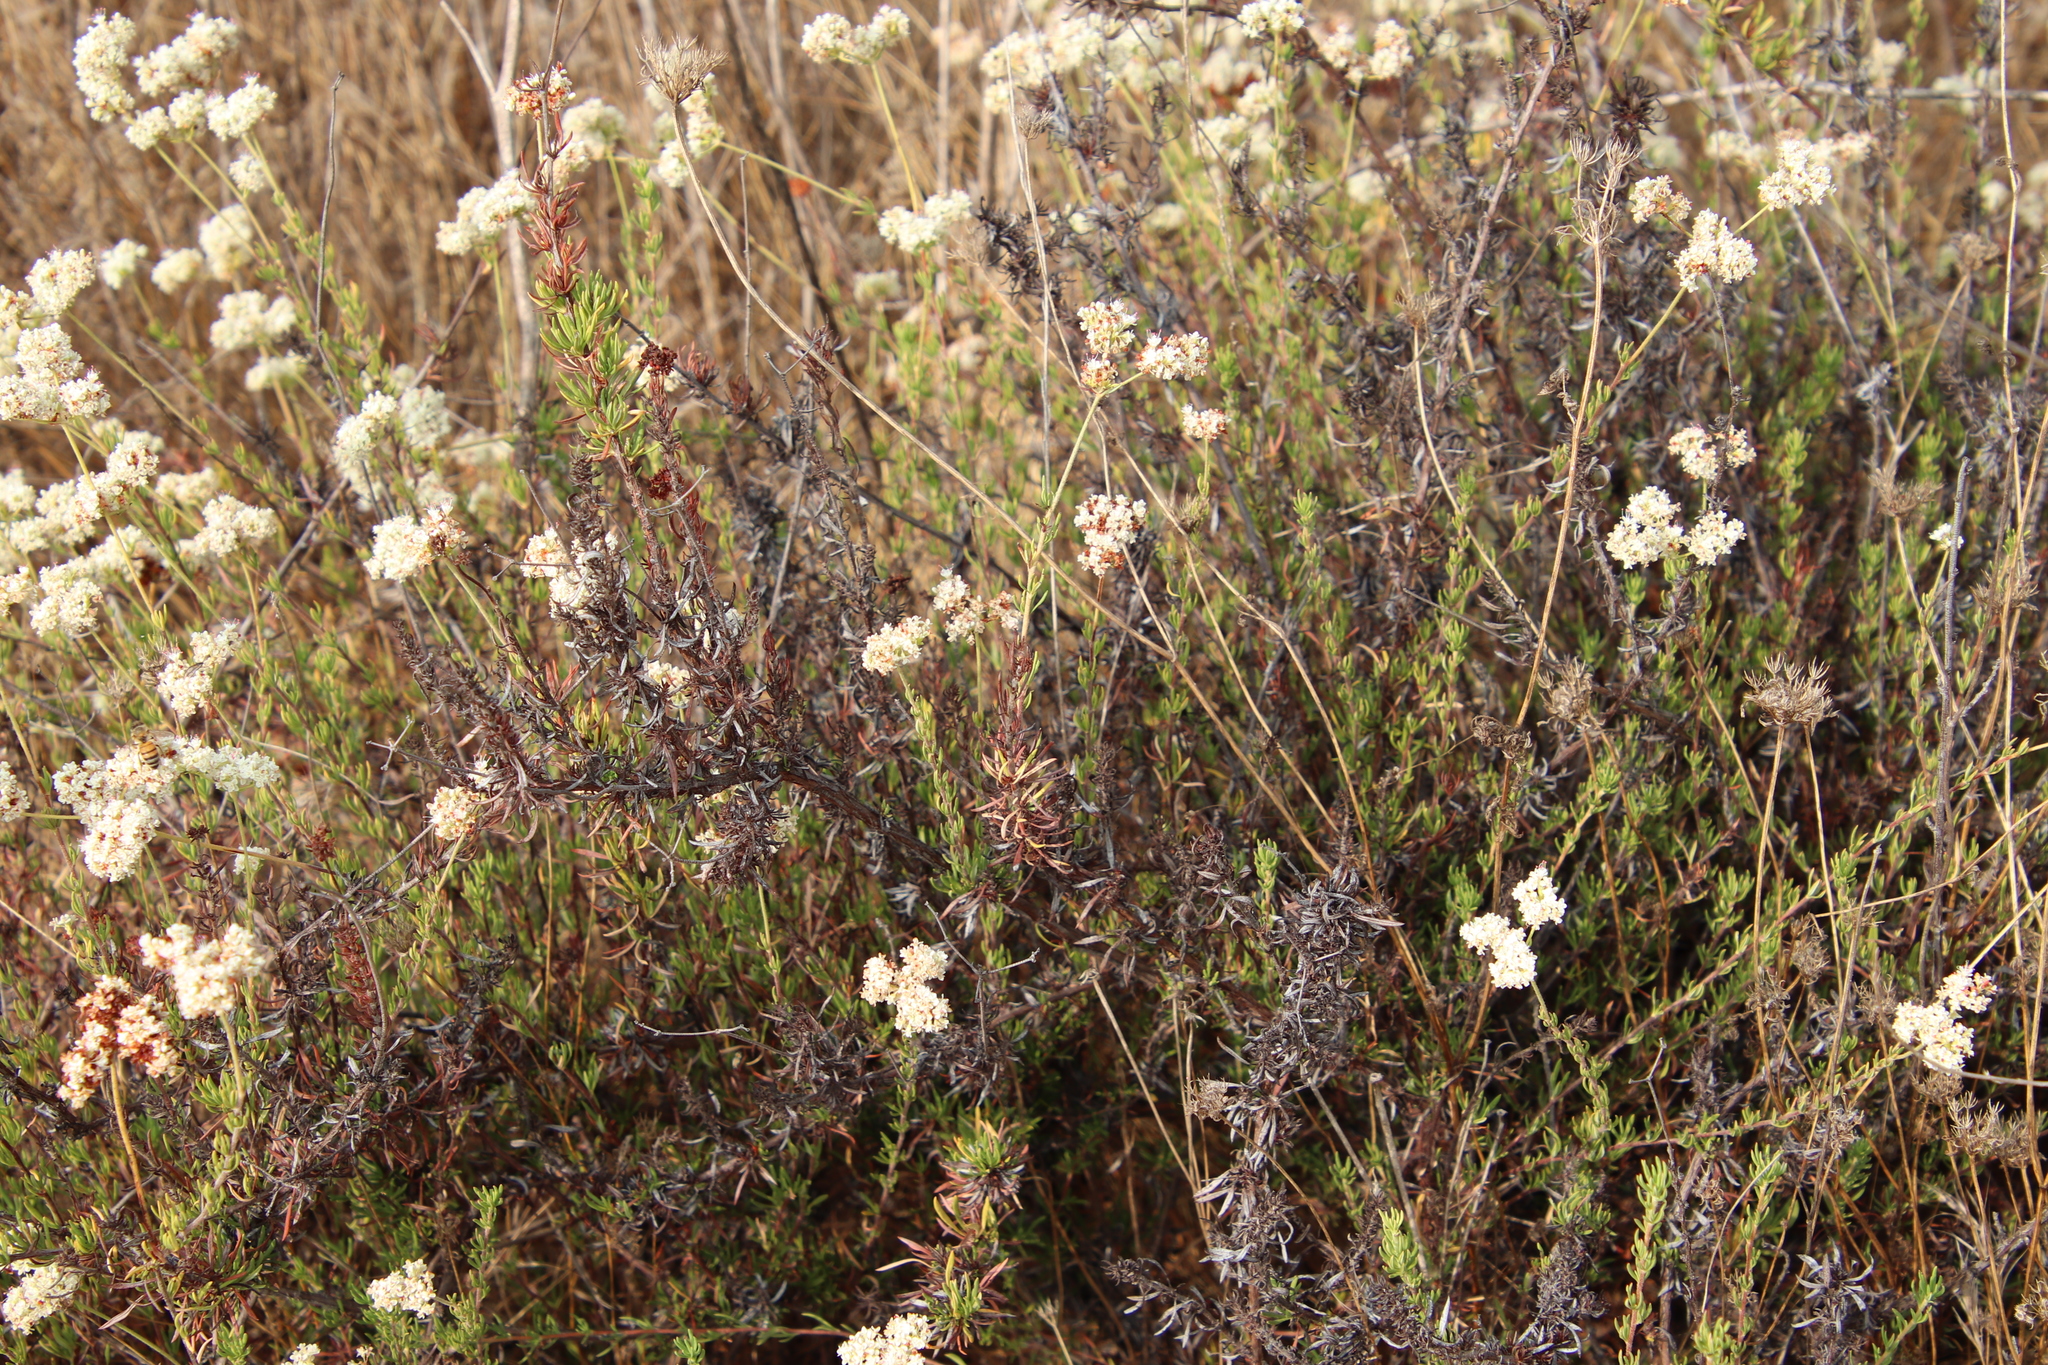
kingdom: Plantae
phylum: Tracheophyta
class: Magnoliopsida
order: Caryophyllales
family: Polygonaceae
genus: Eriogonum
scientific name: Eriogonum fasciculatum
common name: California wild buckwheat
